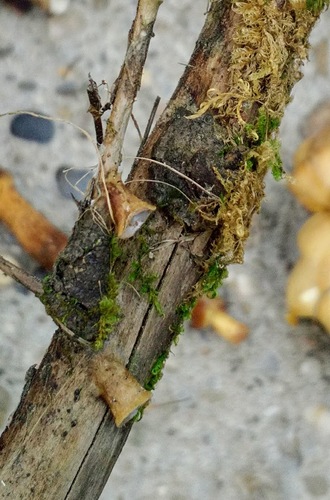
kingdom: Fungi
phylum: Basidiomycota
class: Agaricomycetes
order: Agaricales
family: Nidulariaceae
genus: Crucibulum
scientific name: Crucibulum laeve
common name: Common bird's nest
